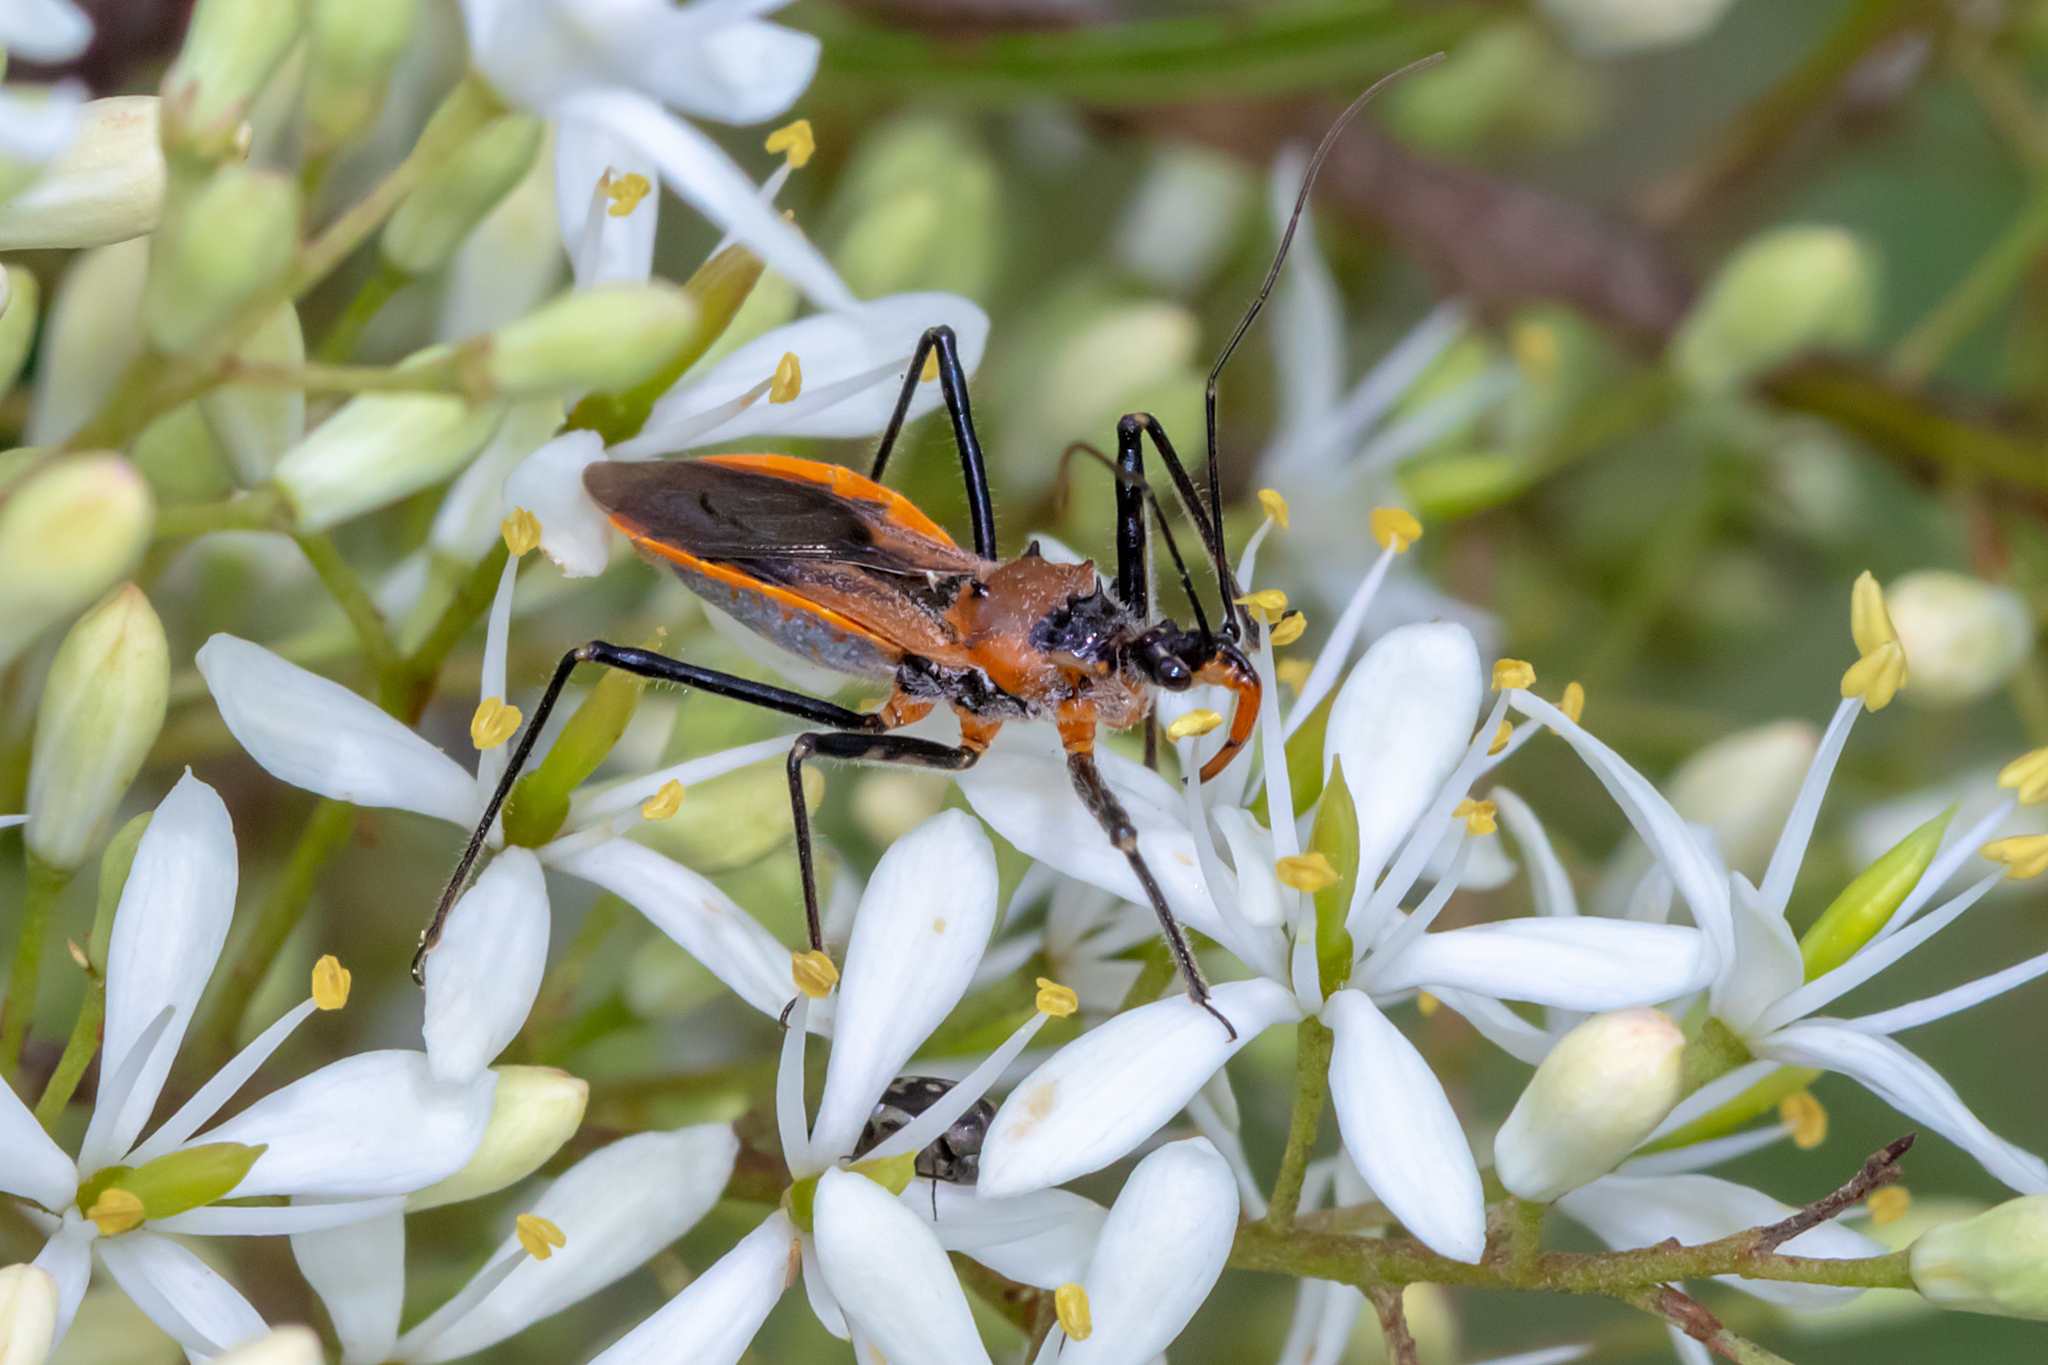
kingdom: Animalia
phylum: Arthropoda
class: Insecta
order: Hemiptera
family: Reduviidae
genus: Gminatus
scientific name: Gminatus australis
